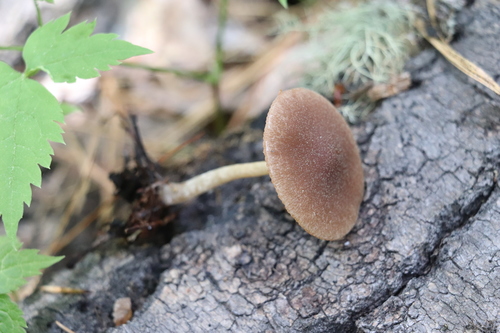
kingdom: Fungi
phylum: Basidiomycota
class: Agaricomycetes
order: Agaricales
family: Psathyrellaceae
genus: Psathyrella
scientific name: Psathyrella
